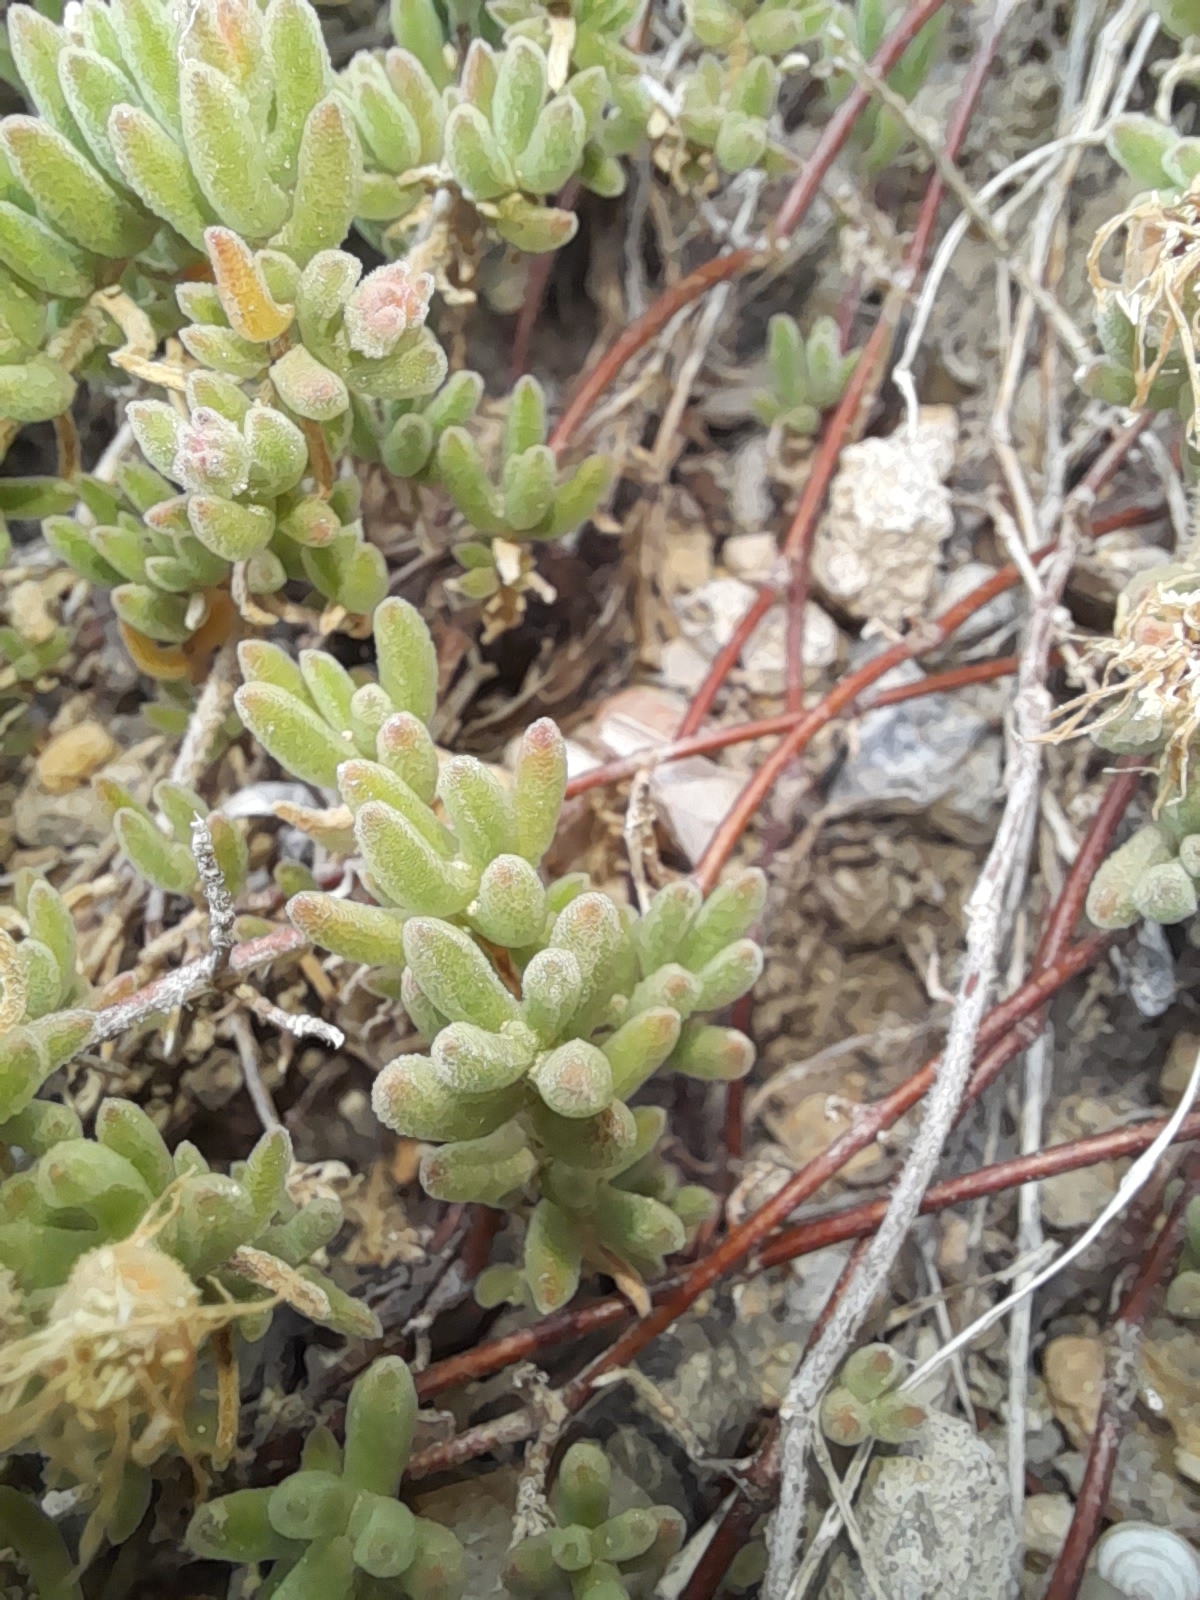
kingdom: Plantae
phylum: Tracheophyta
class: Magnoliopsida
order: Caryophyllales
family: Aizoaceae
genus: Drosanthemum
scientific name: Drosanthemum floribundum
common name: Pale dewplant
